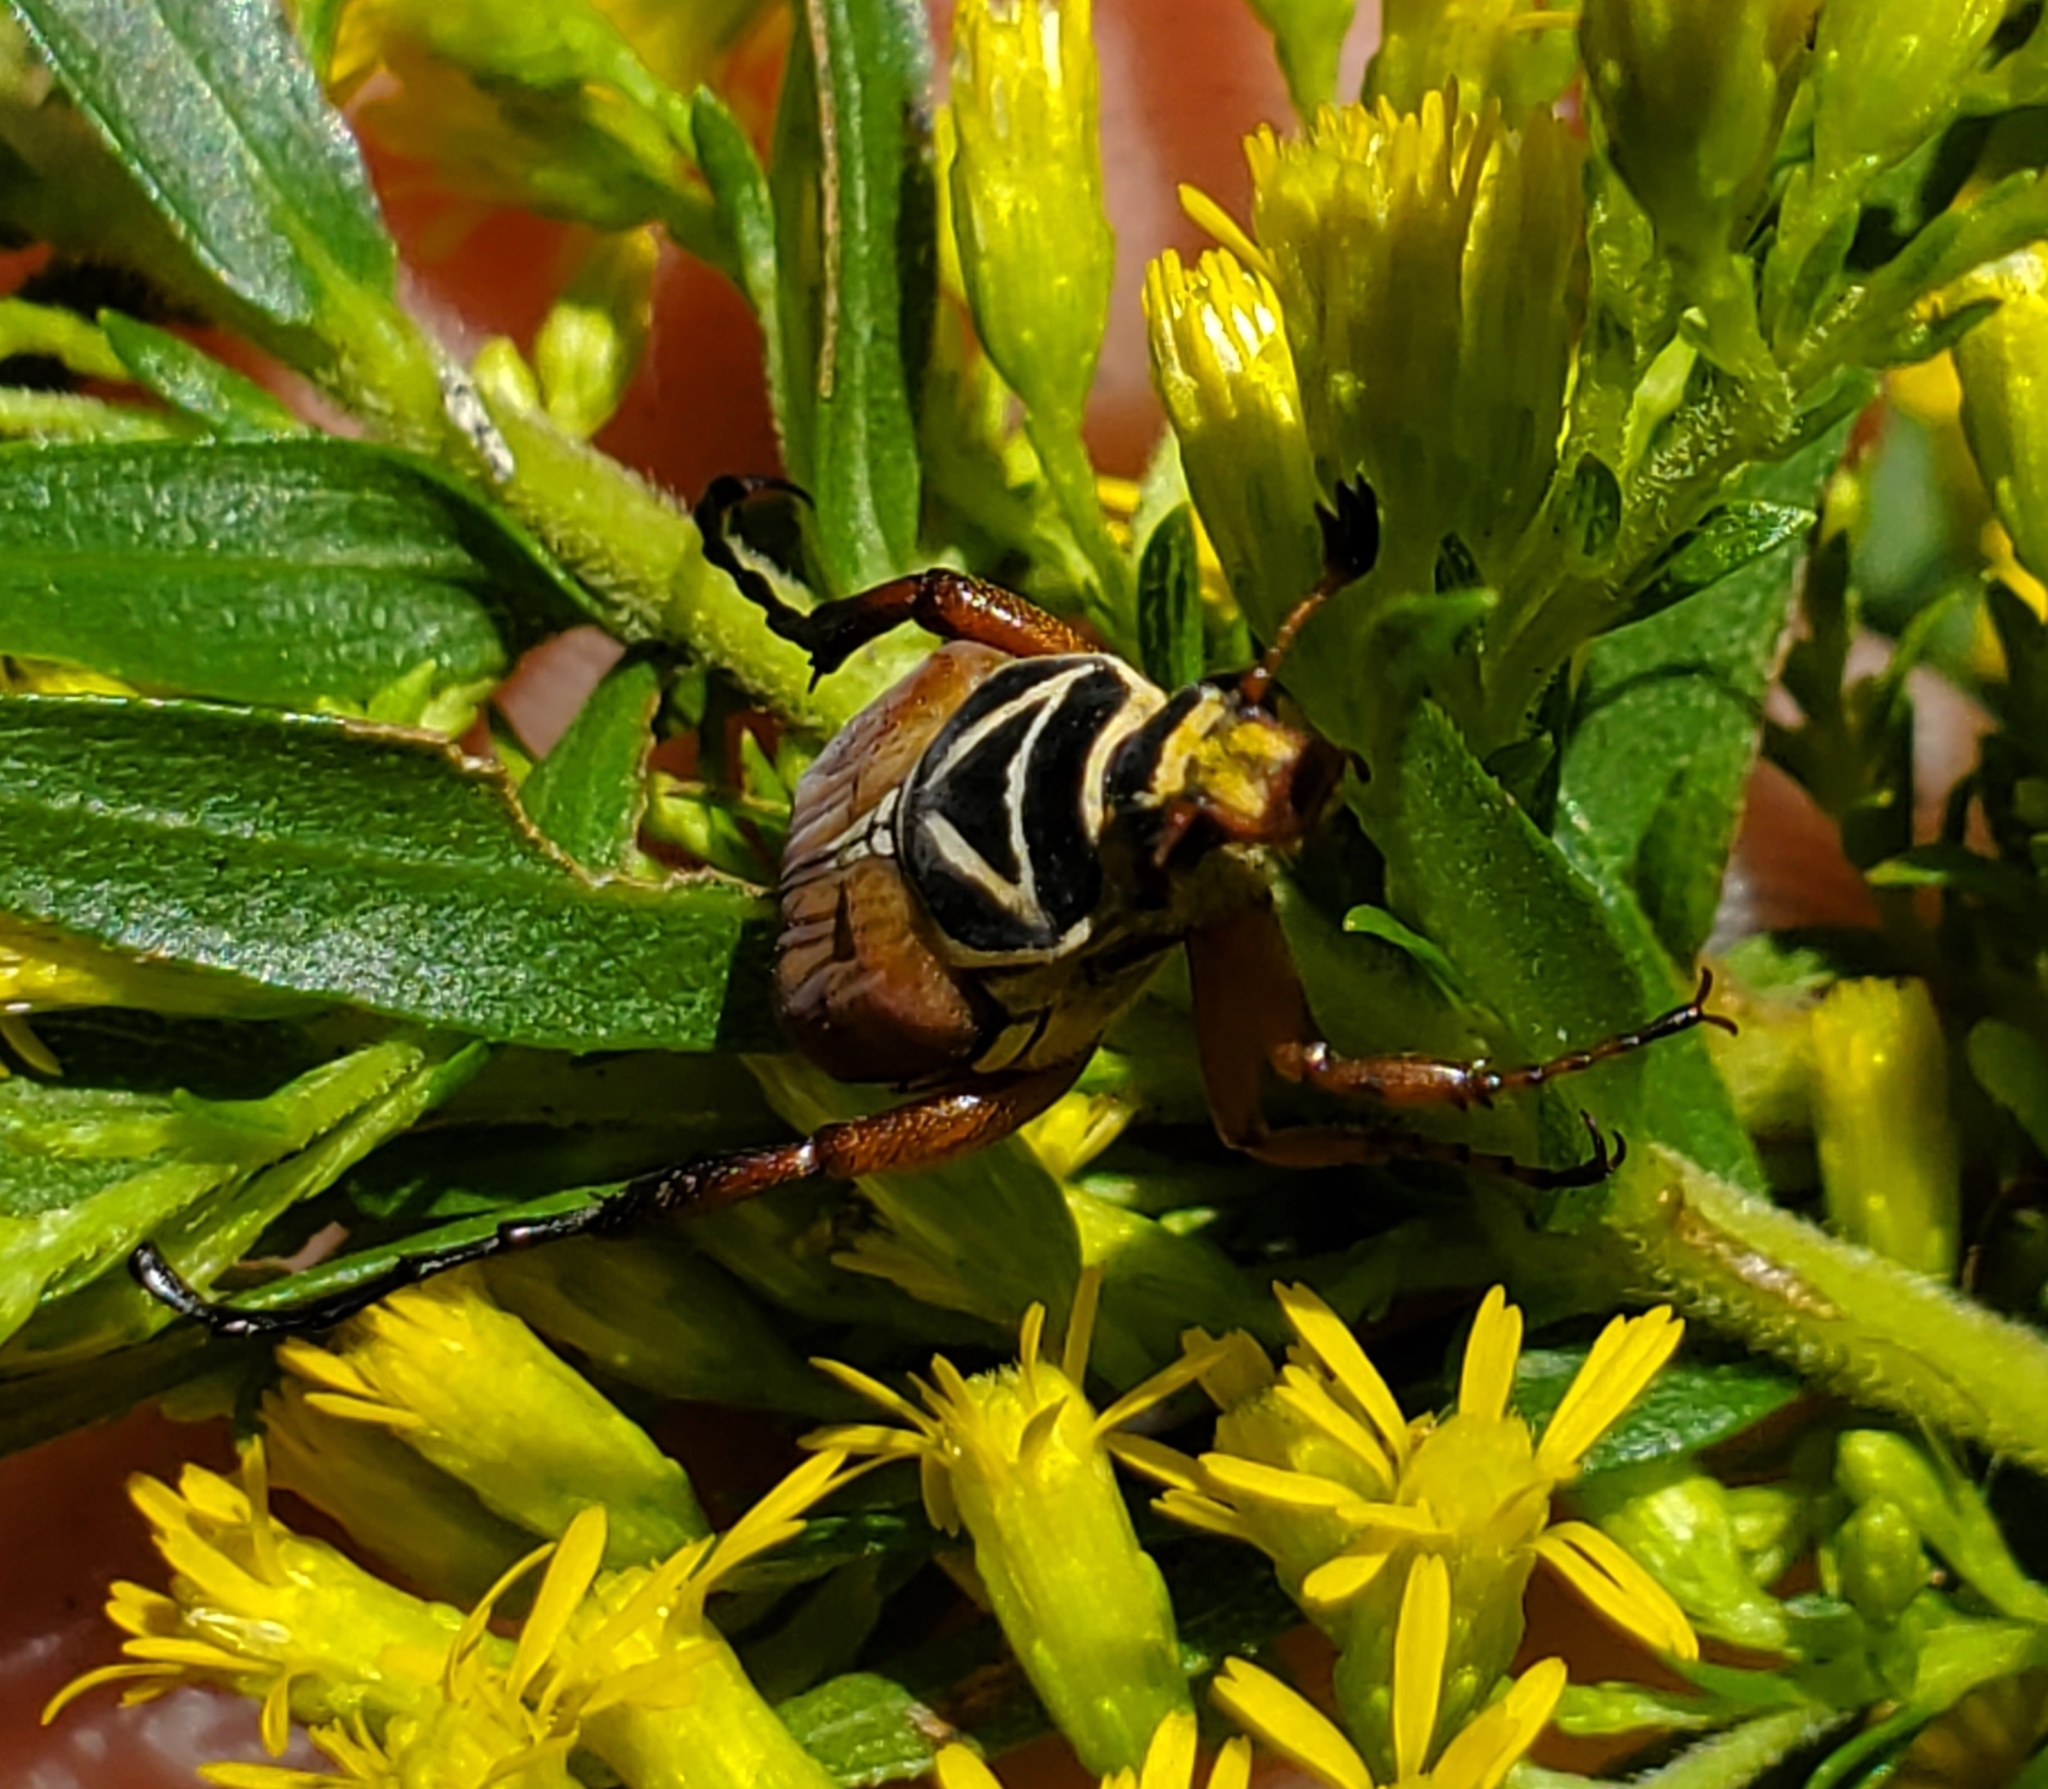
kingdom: Animalia
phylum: Arthropoda
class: Insecta
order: Coleoptera
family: Scarabaeidae
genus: Trigonopeltastes
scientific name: Trigonopeltastes delta
